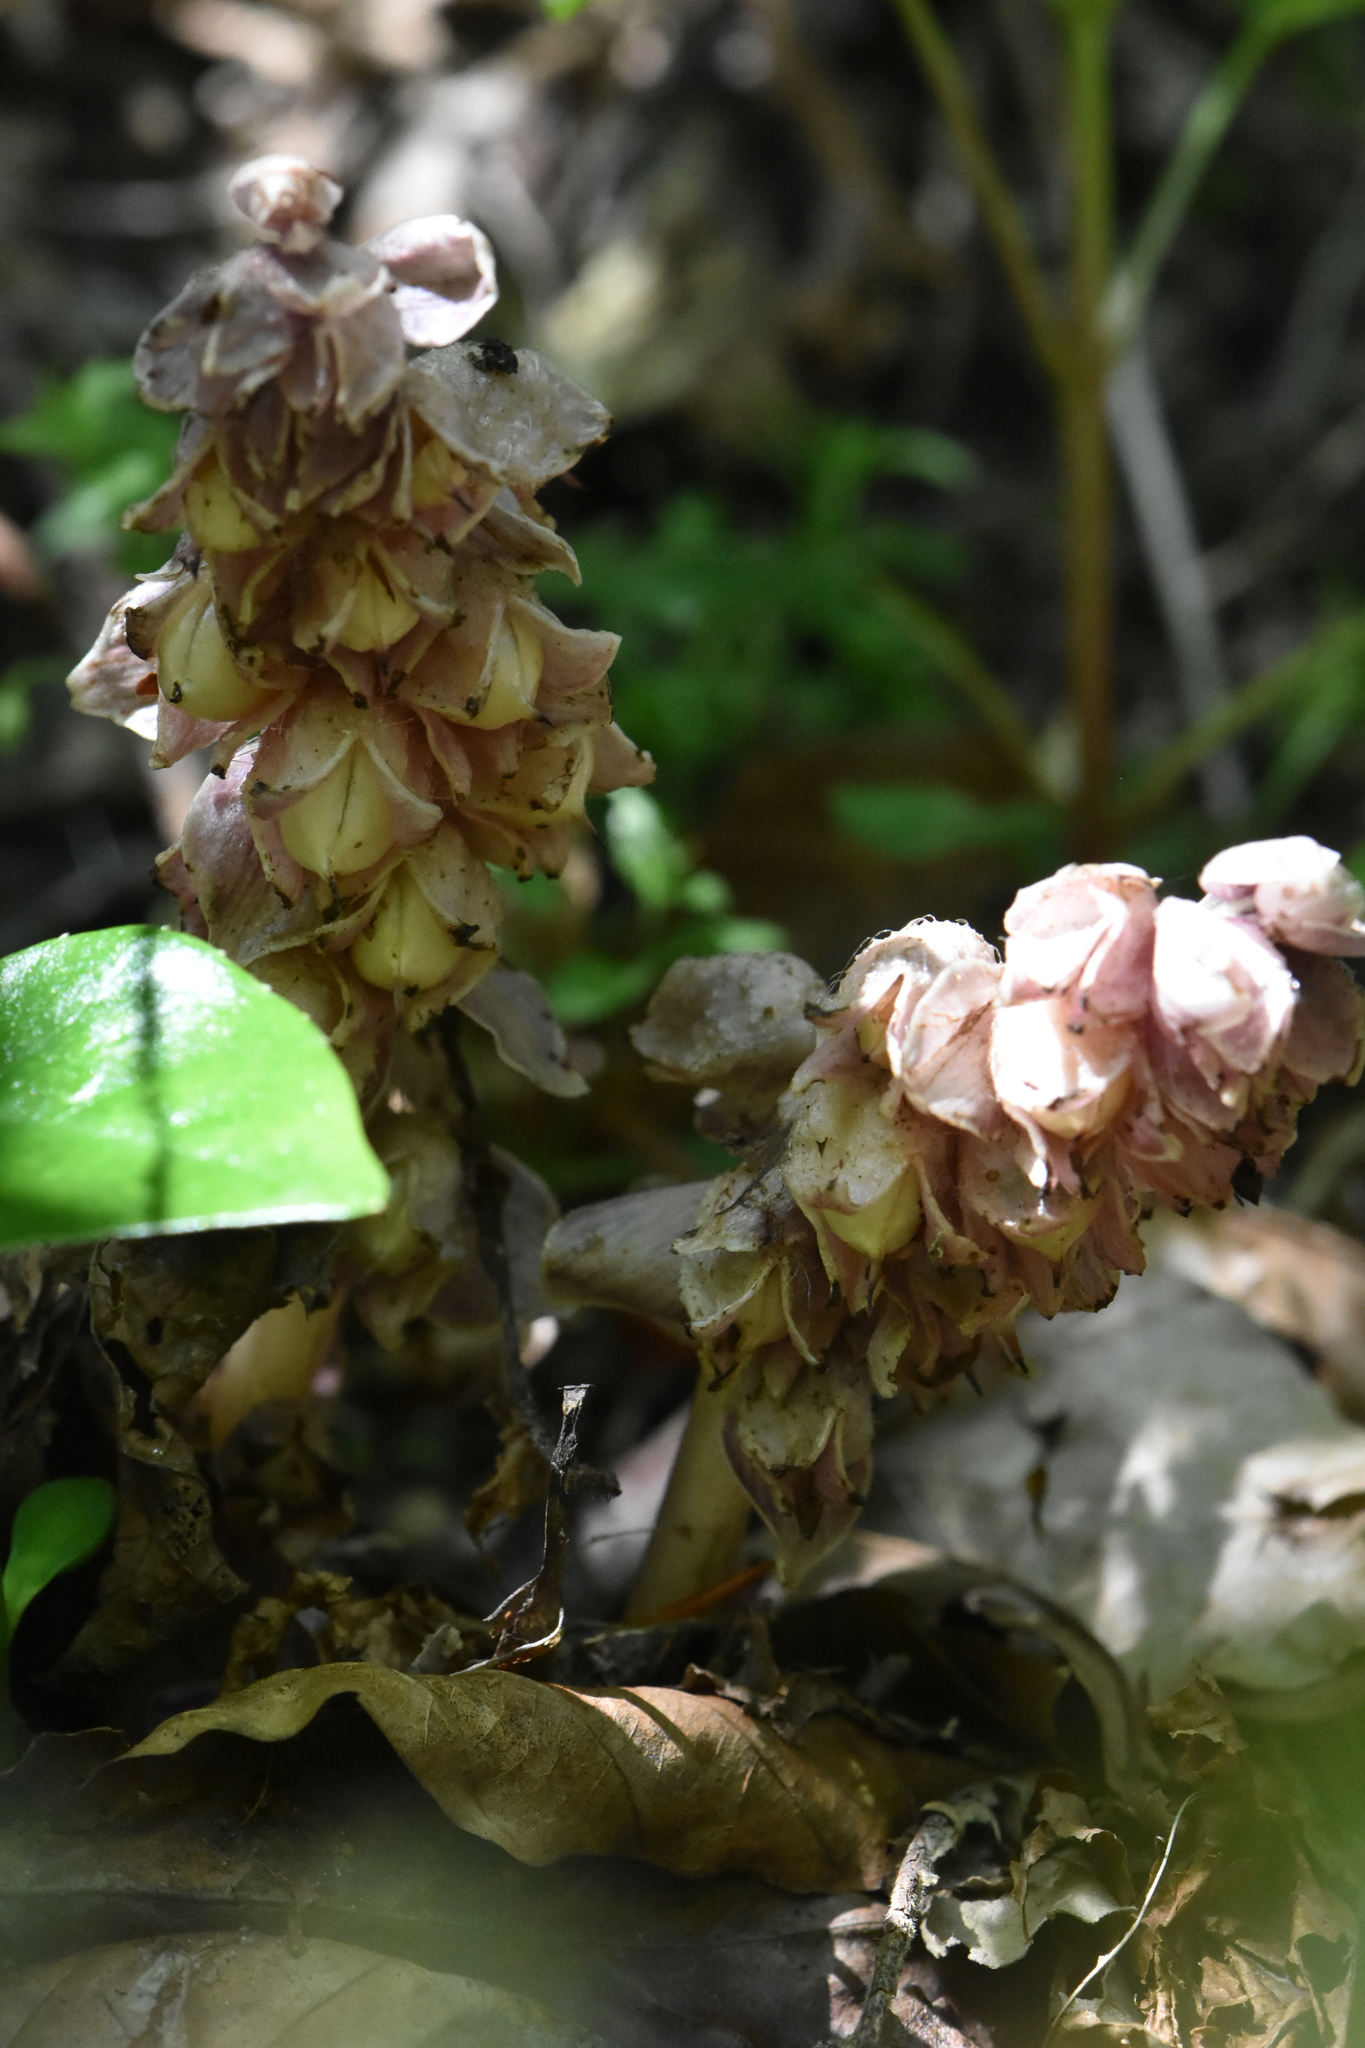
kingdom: Plantae
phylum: Tracheophyta
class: Magnoliopsida
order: Lamiales
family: Orobanchaceae
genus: Lathraea
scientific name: Lathraea squamaria
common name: Toothwort
